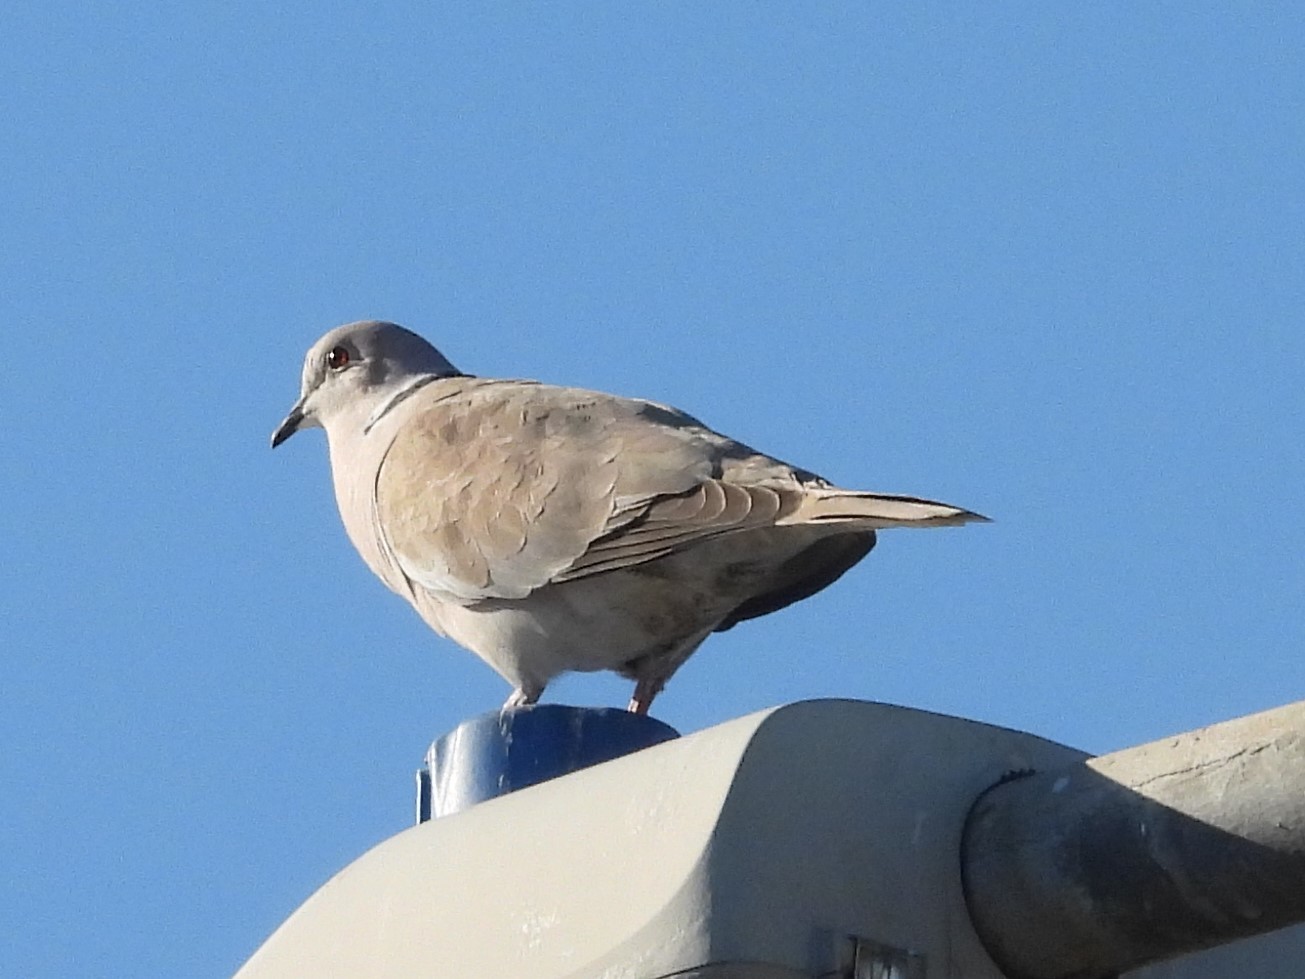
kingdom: Animalia
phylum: Chordata
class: Aves
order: Columbiformes
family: Columbidae
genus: Streptopelia
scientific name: Streptopelia decaocto
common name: Eurasian collared dove
